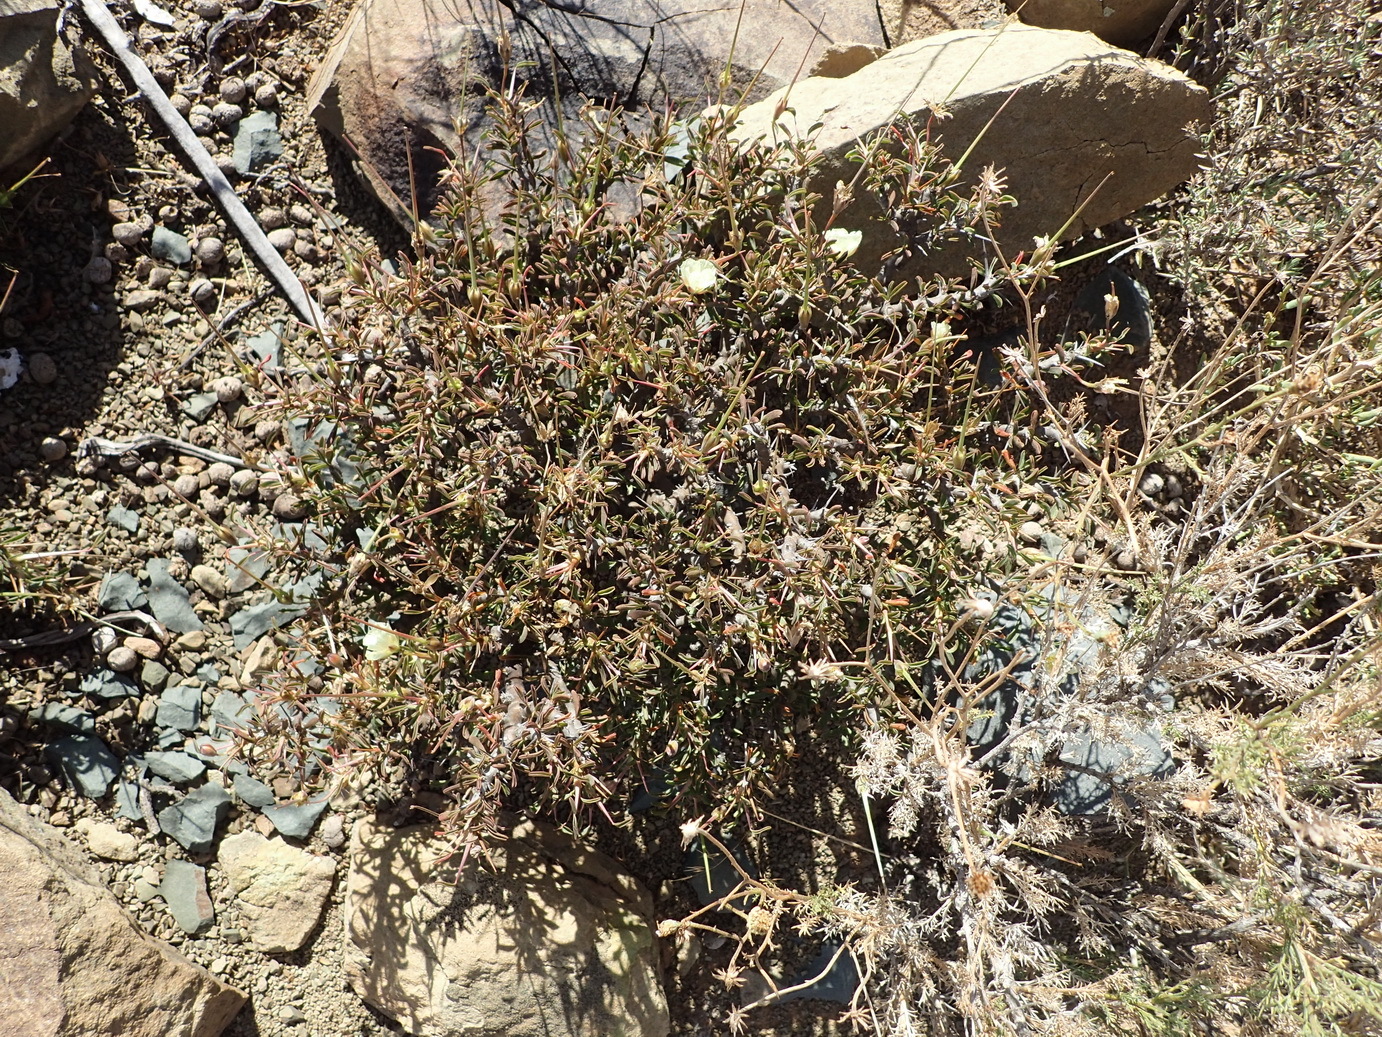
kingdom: Plantae
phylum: Tracheophyta
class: Magnoliopsida
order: Geraniales
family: Geraniaceae
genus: Monsonia
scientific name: Monsonia camdeboensis
